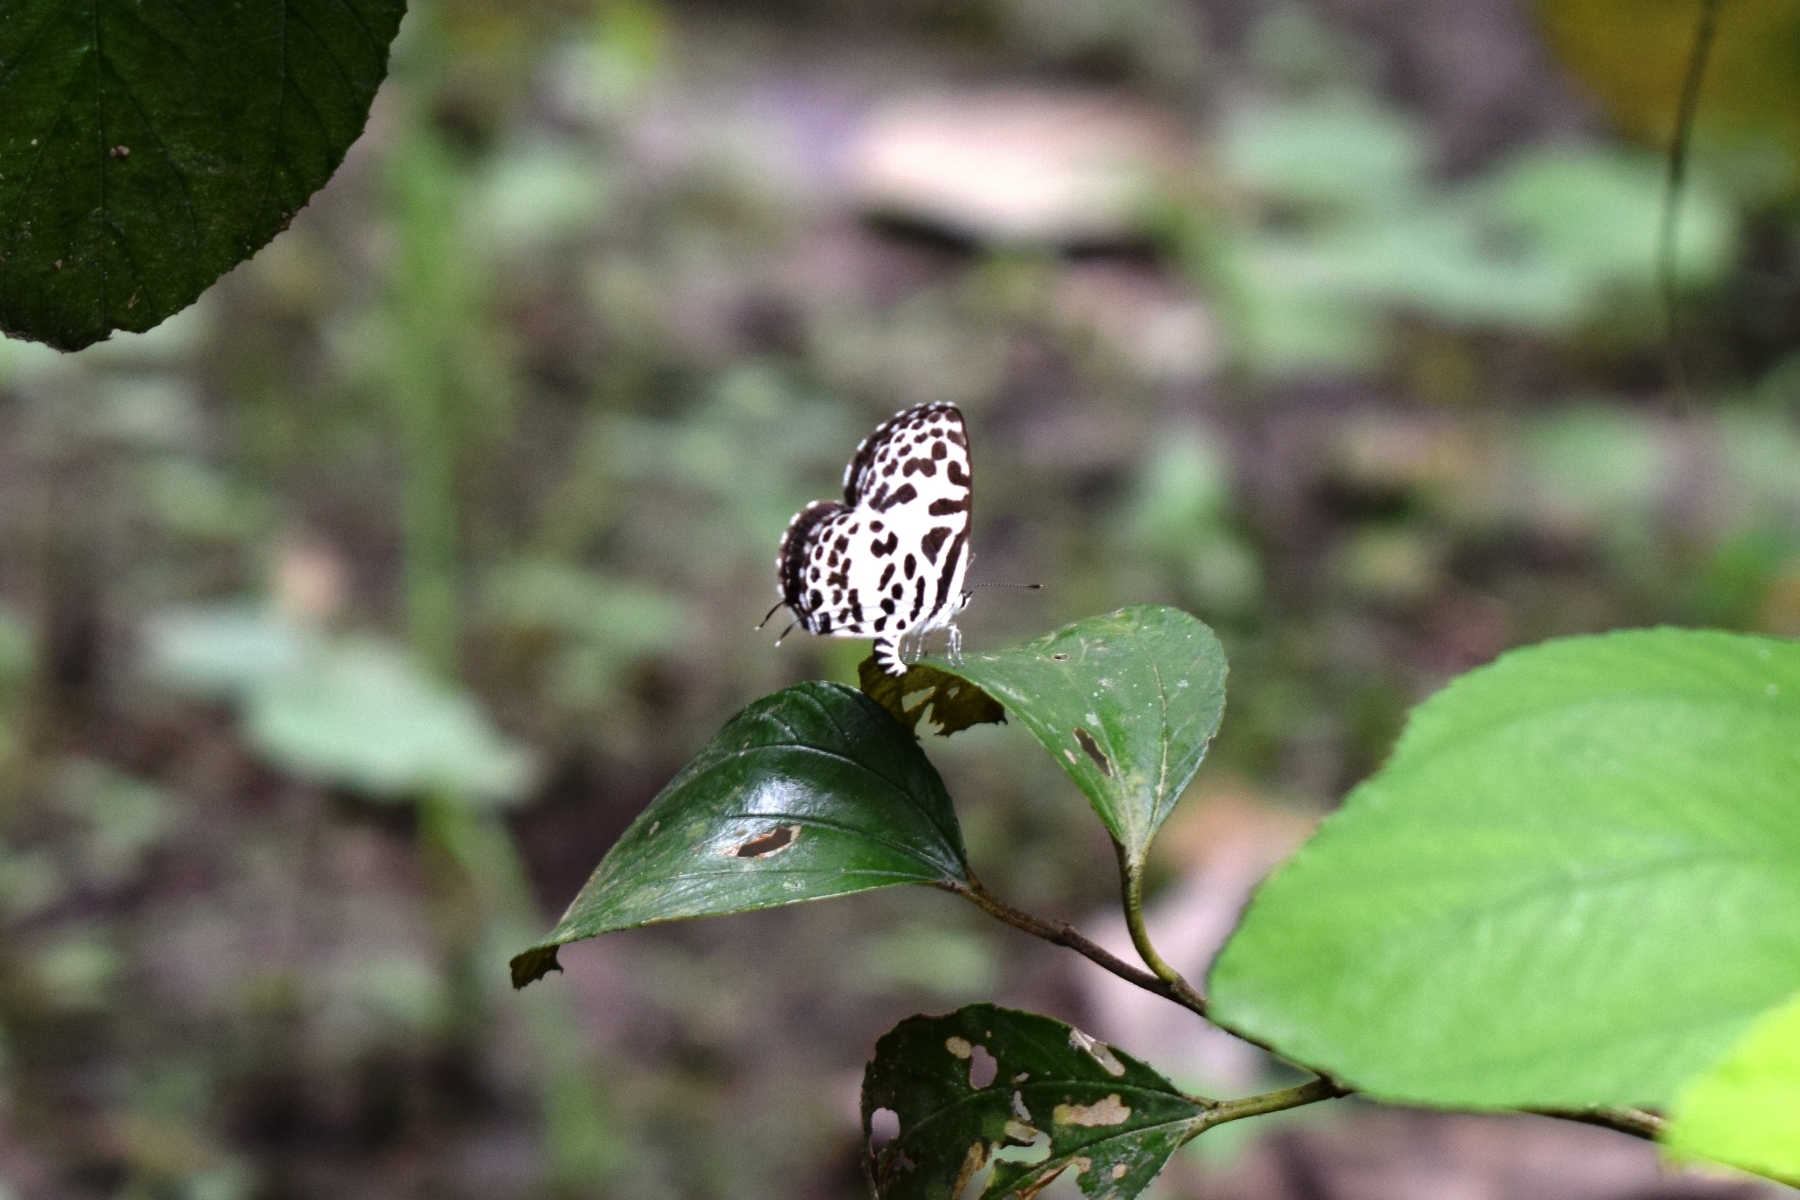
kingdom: Animalia
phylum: Arthropoda
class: Insecta
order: Lepidoptera
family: Lycaenidae
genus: Castalius
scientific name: Castalius rosimon
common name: Common pierrot
